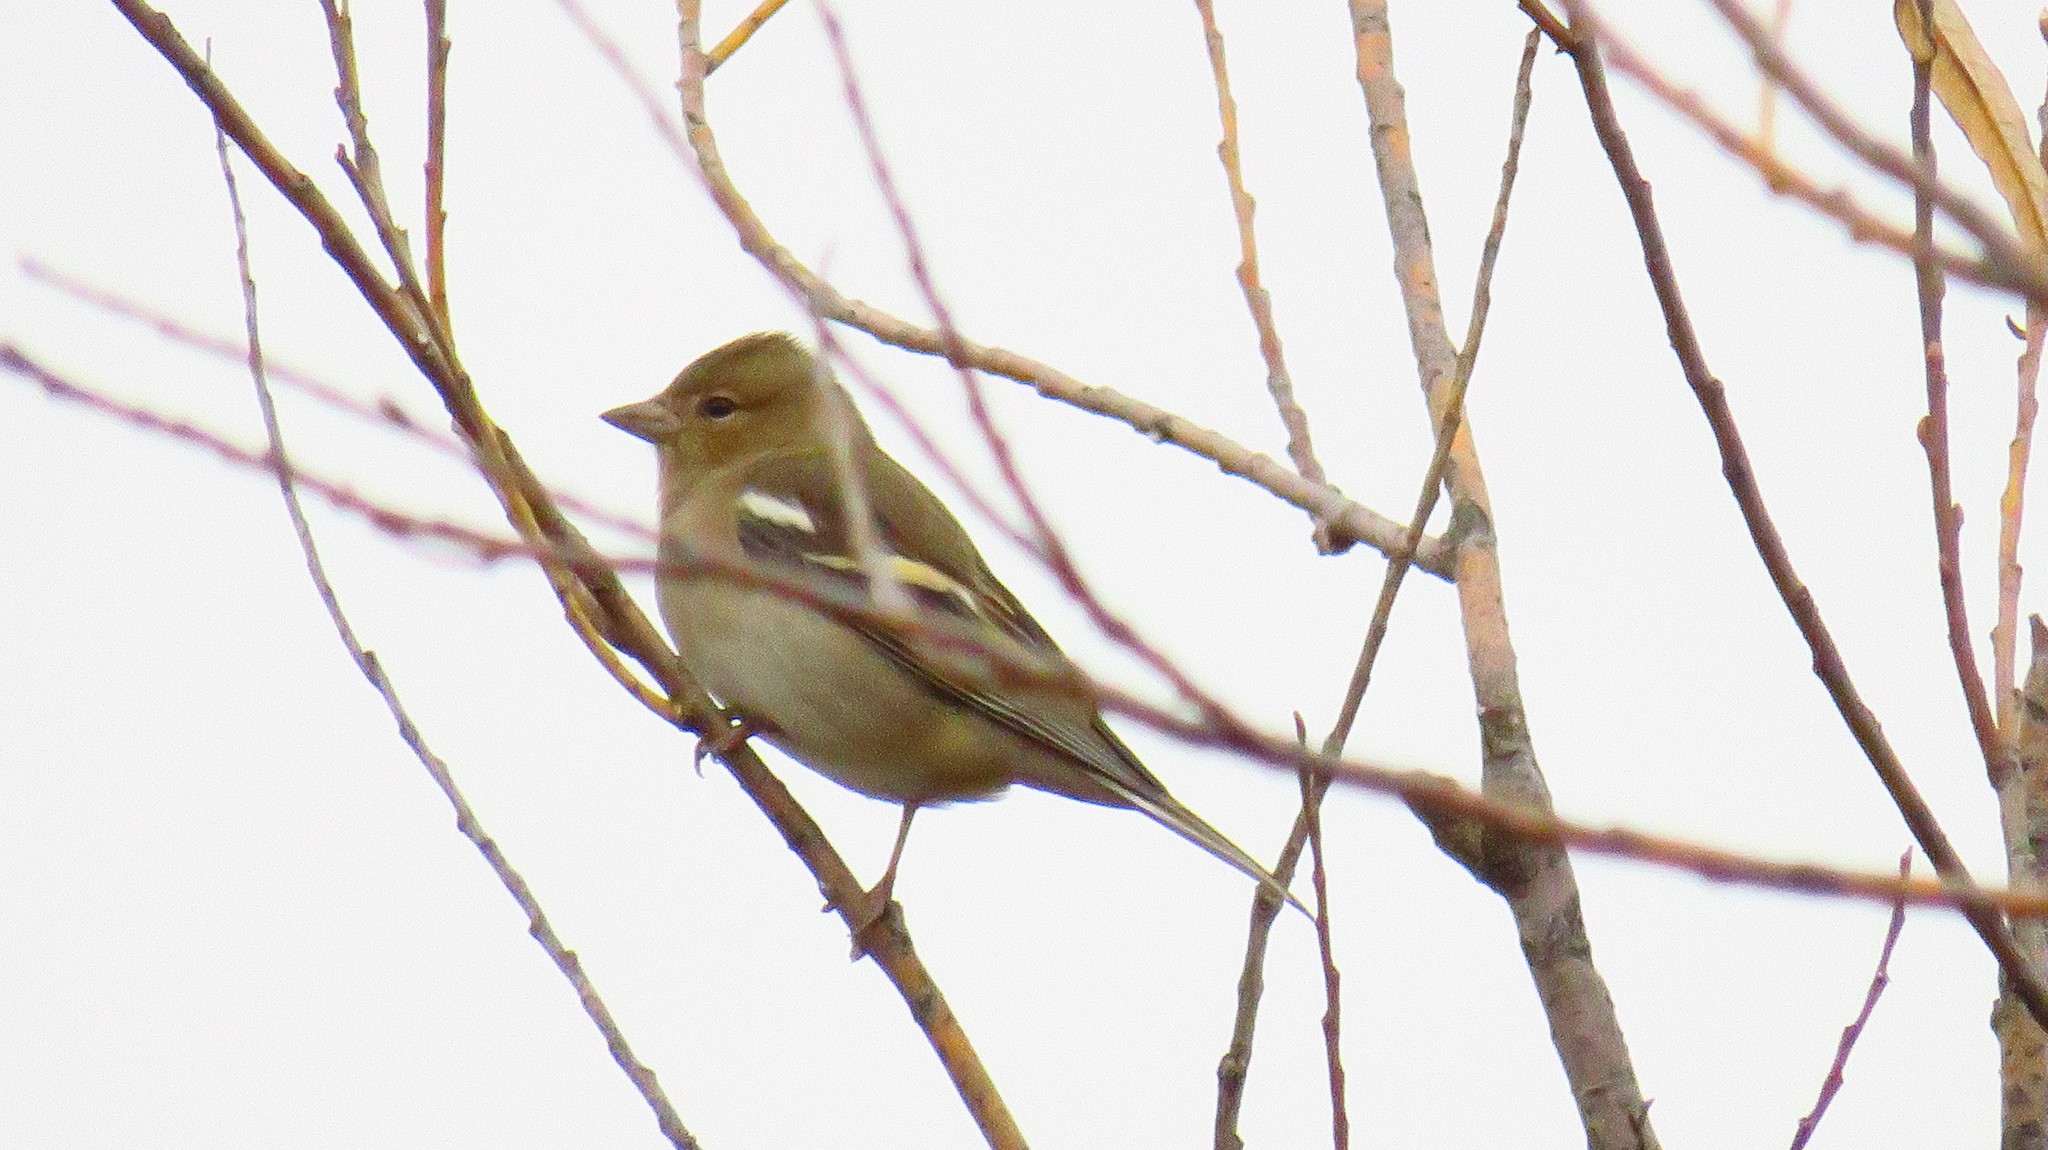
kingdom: Animalia
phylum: Chordata
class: Aves
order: Passeriformes
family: Fringillidae
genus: Fringilla
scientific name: Fringilla coelebs
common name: Common chaffinch
